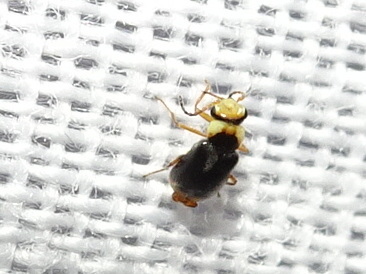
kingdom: Animalia
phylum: Arthropoda
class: Insecta
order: Coleoptera
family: Melyridae
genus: Hypebaeus
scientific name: Hypebaeus albifrons
